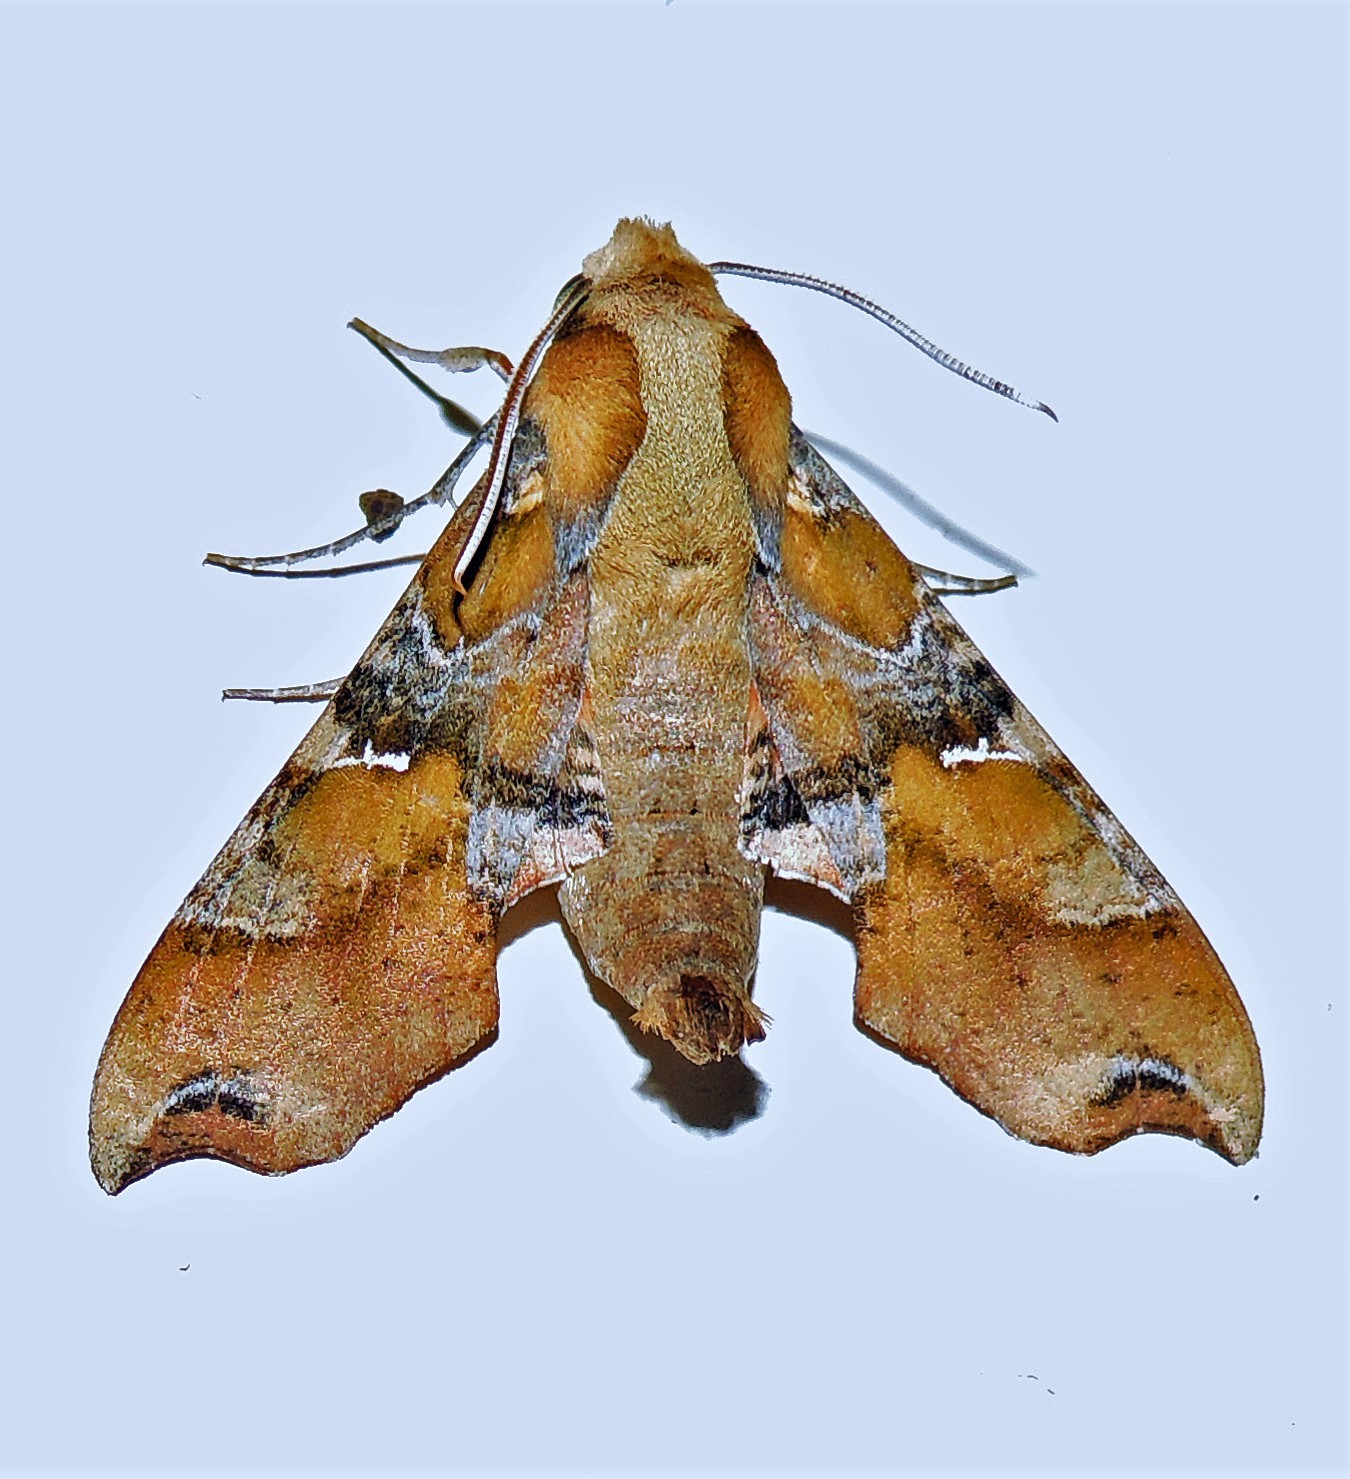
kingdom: Animalia
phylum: Arthropoda
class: Insecta
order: Lepidoptera
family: Sphingidae
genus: Callionima
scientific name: Callionima grisescens
